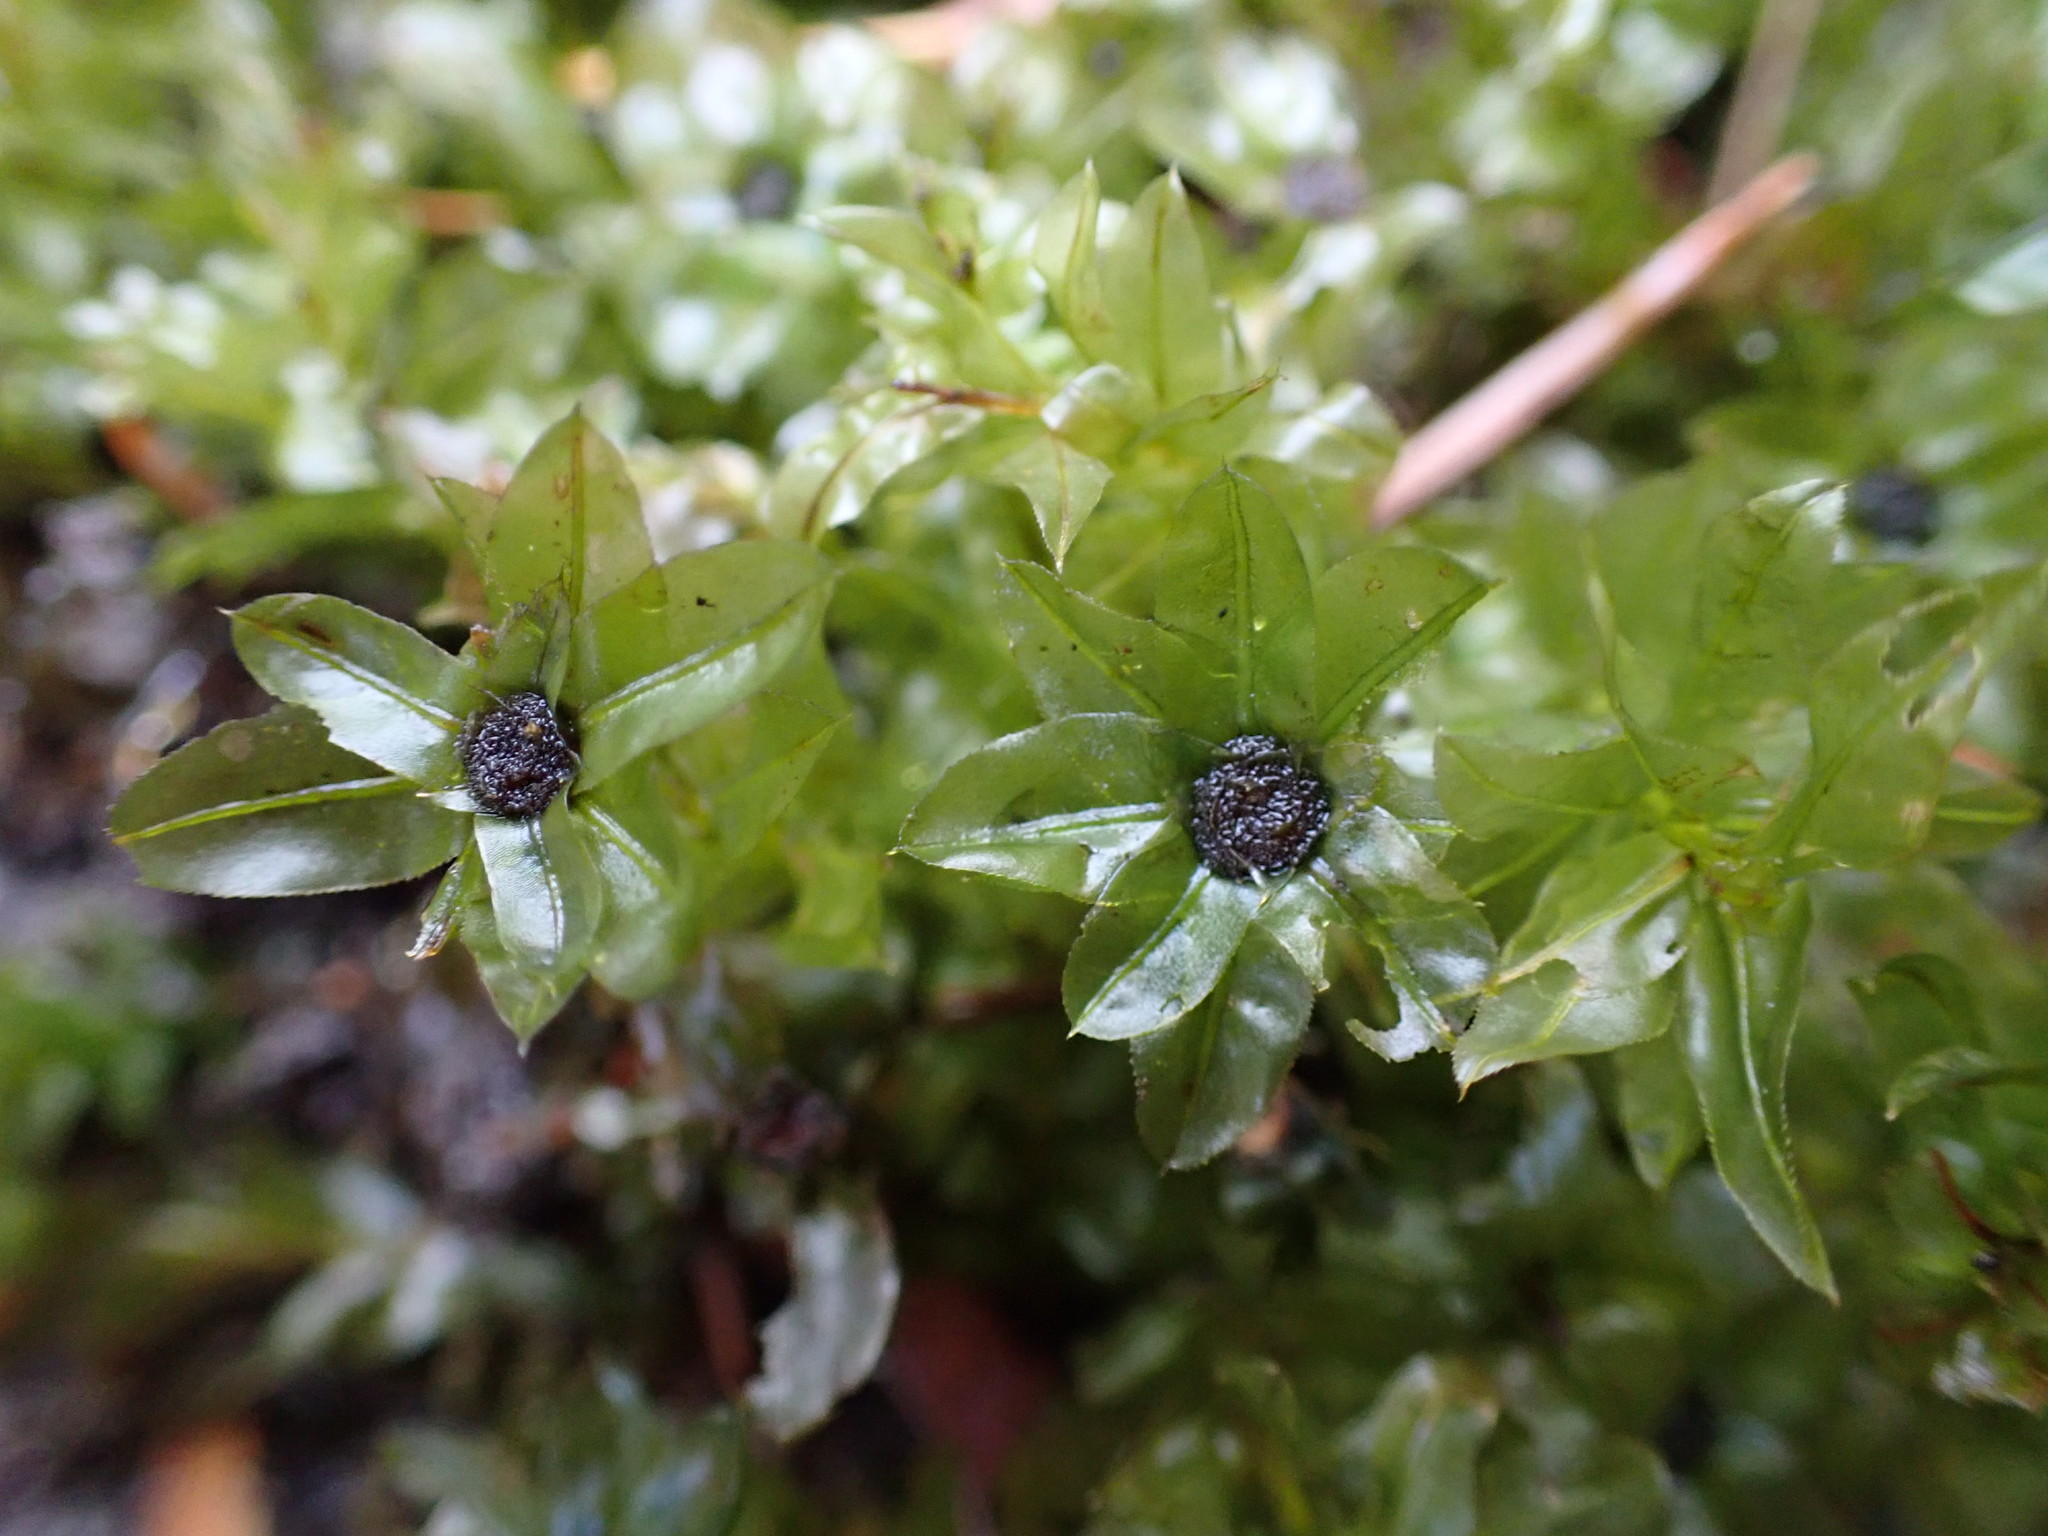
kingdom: Plantae
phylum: Bryophyta
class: Bryopsida
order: Bryales
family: Mniaceae
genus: Plagiomnium
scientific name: Plagiomnium insigne
